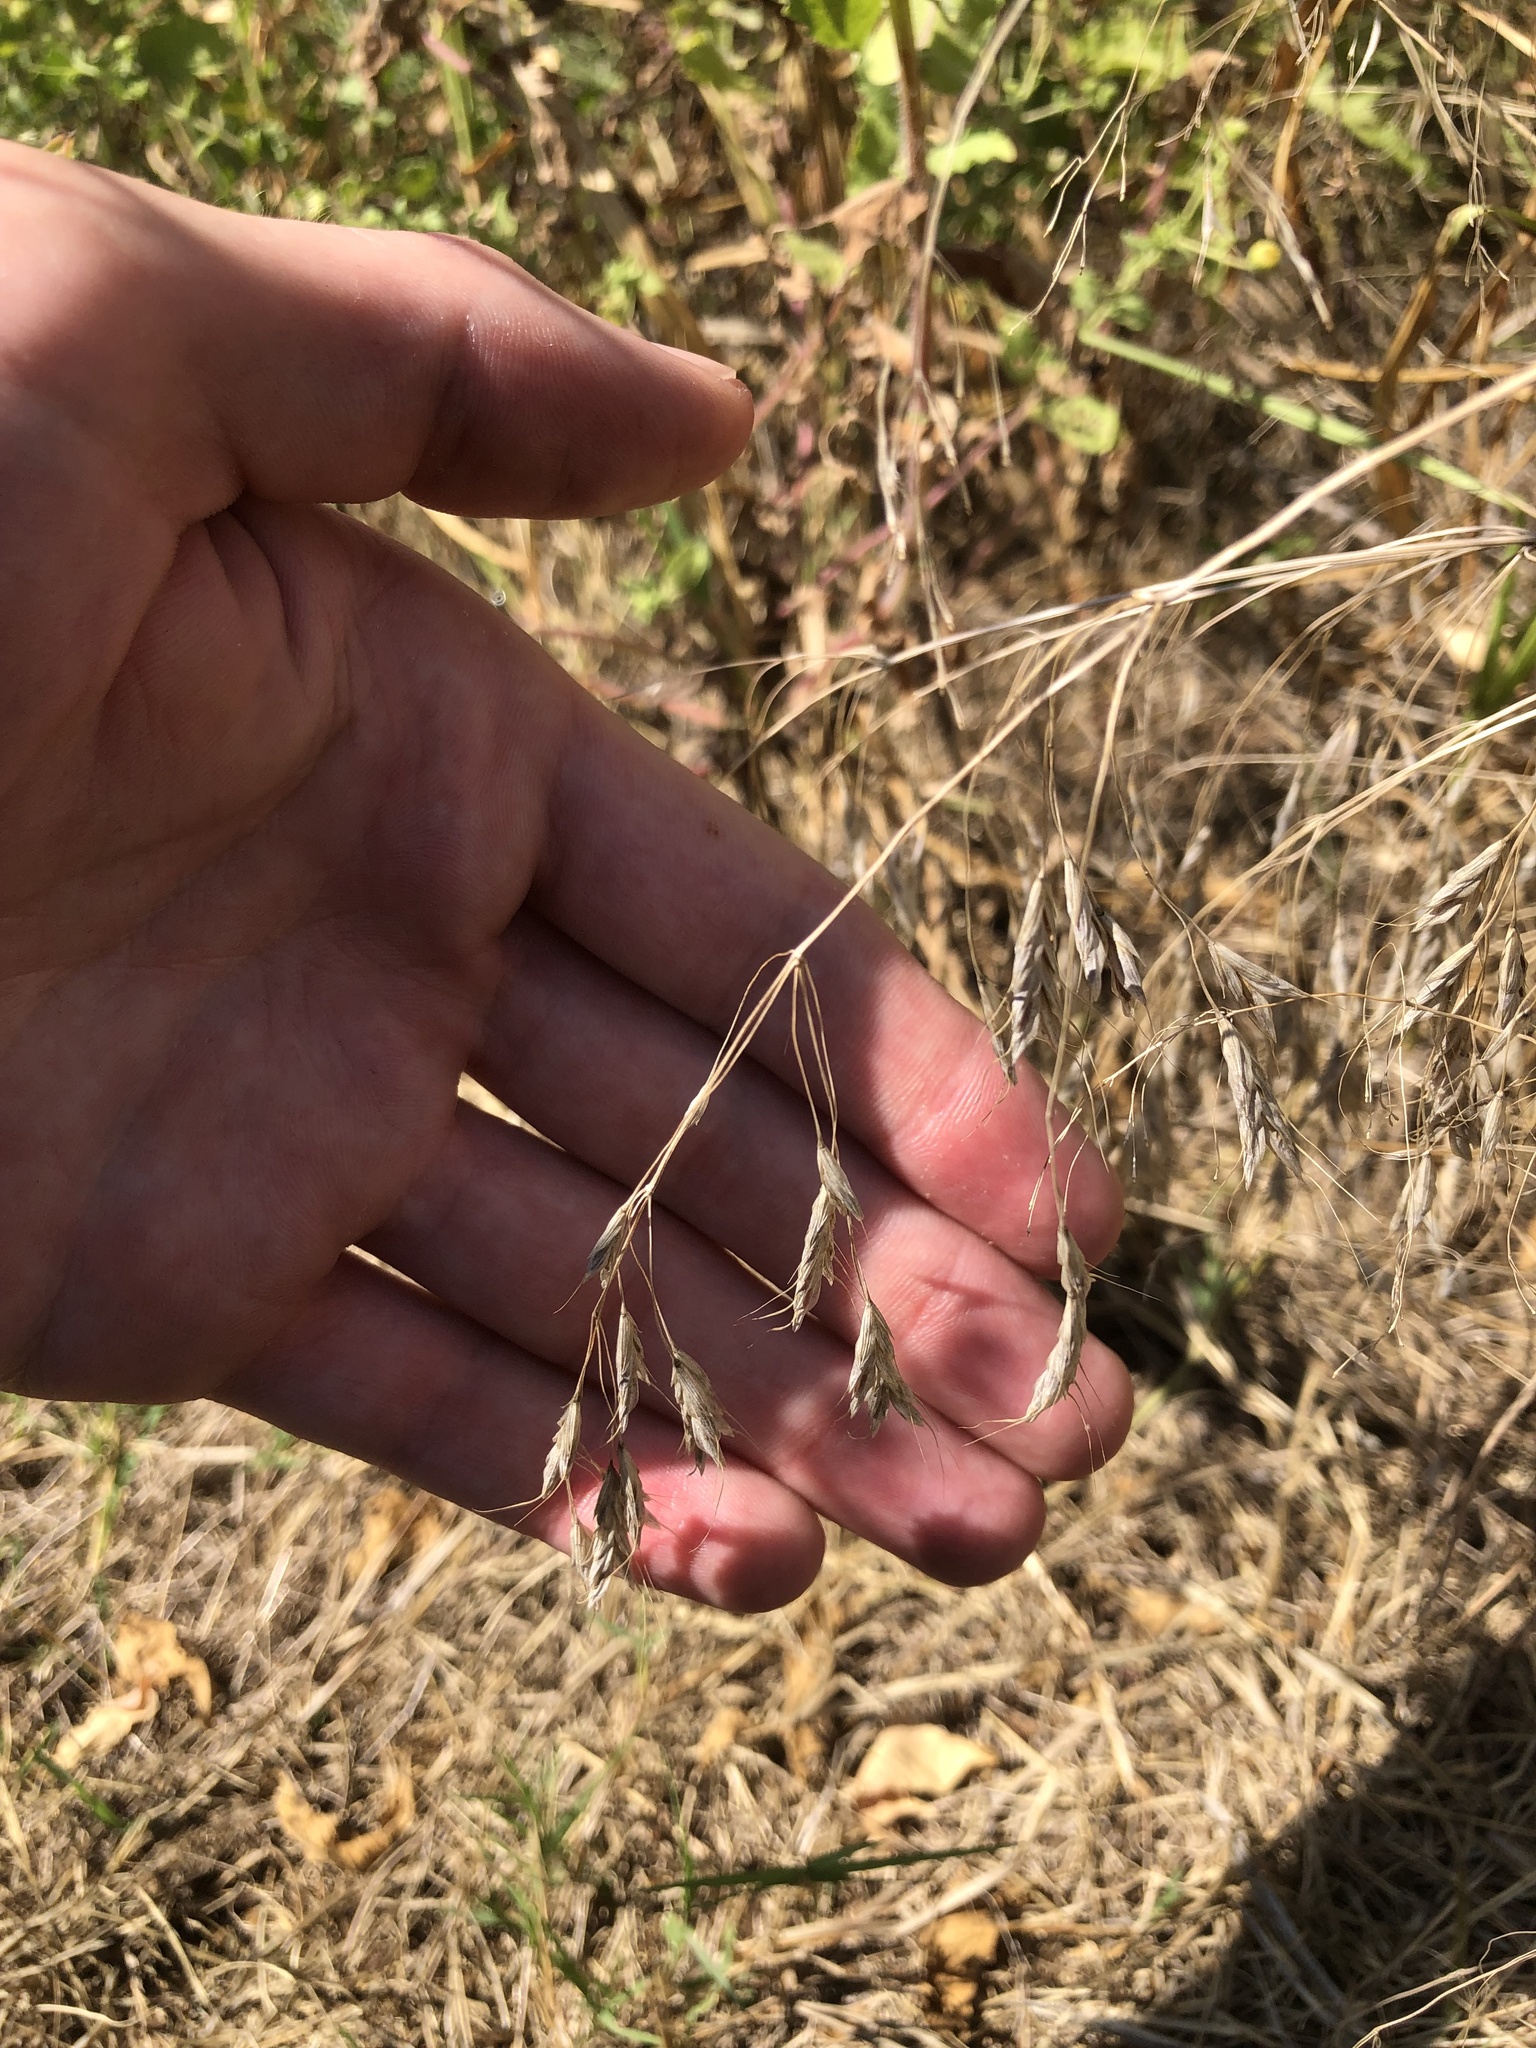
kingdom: Plantae
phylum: Tracheophyta
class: Liliopsida
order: Poales
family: Poaceae
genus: Bromus
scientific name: Bromus japonicus
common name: Japanese brome
